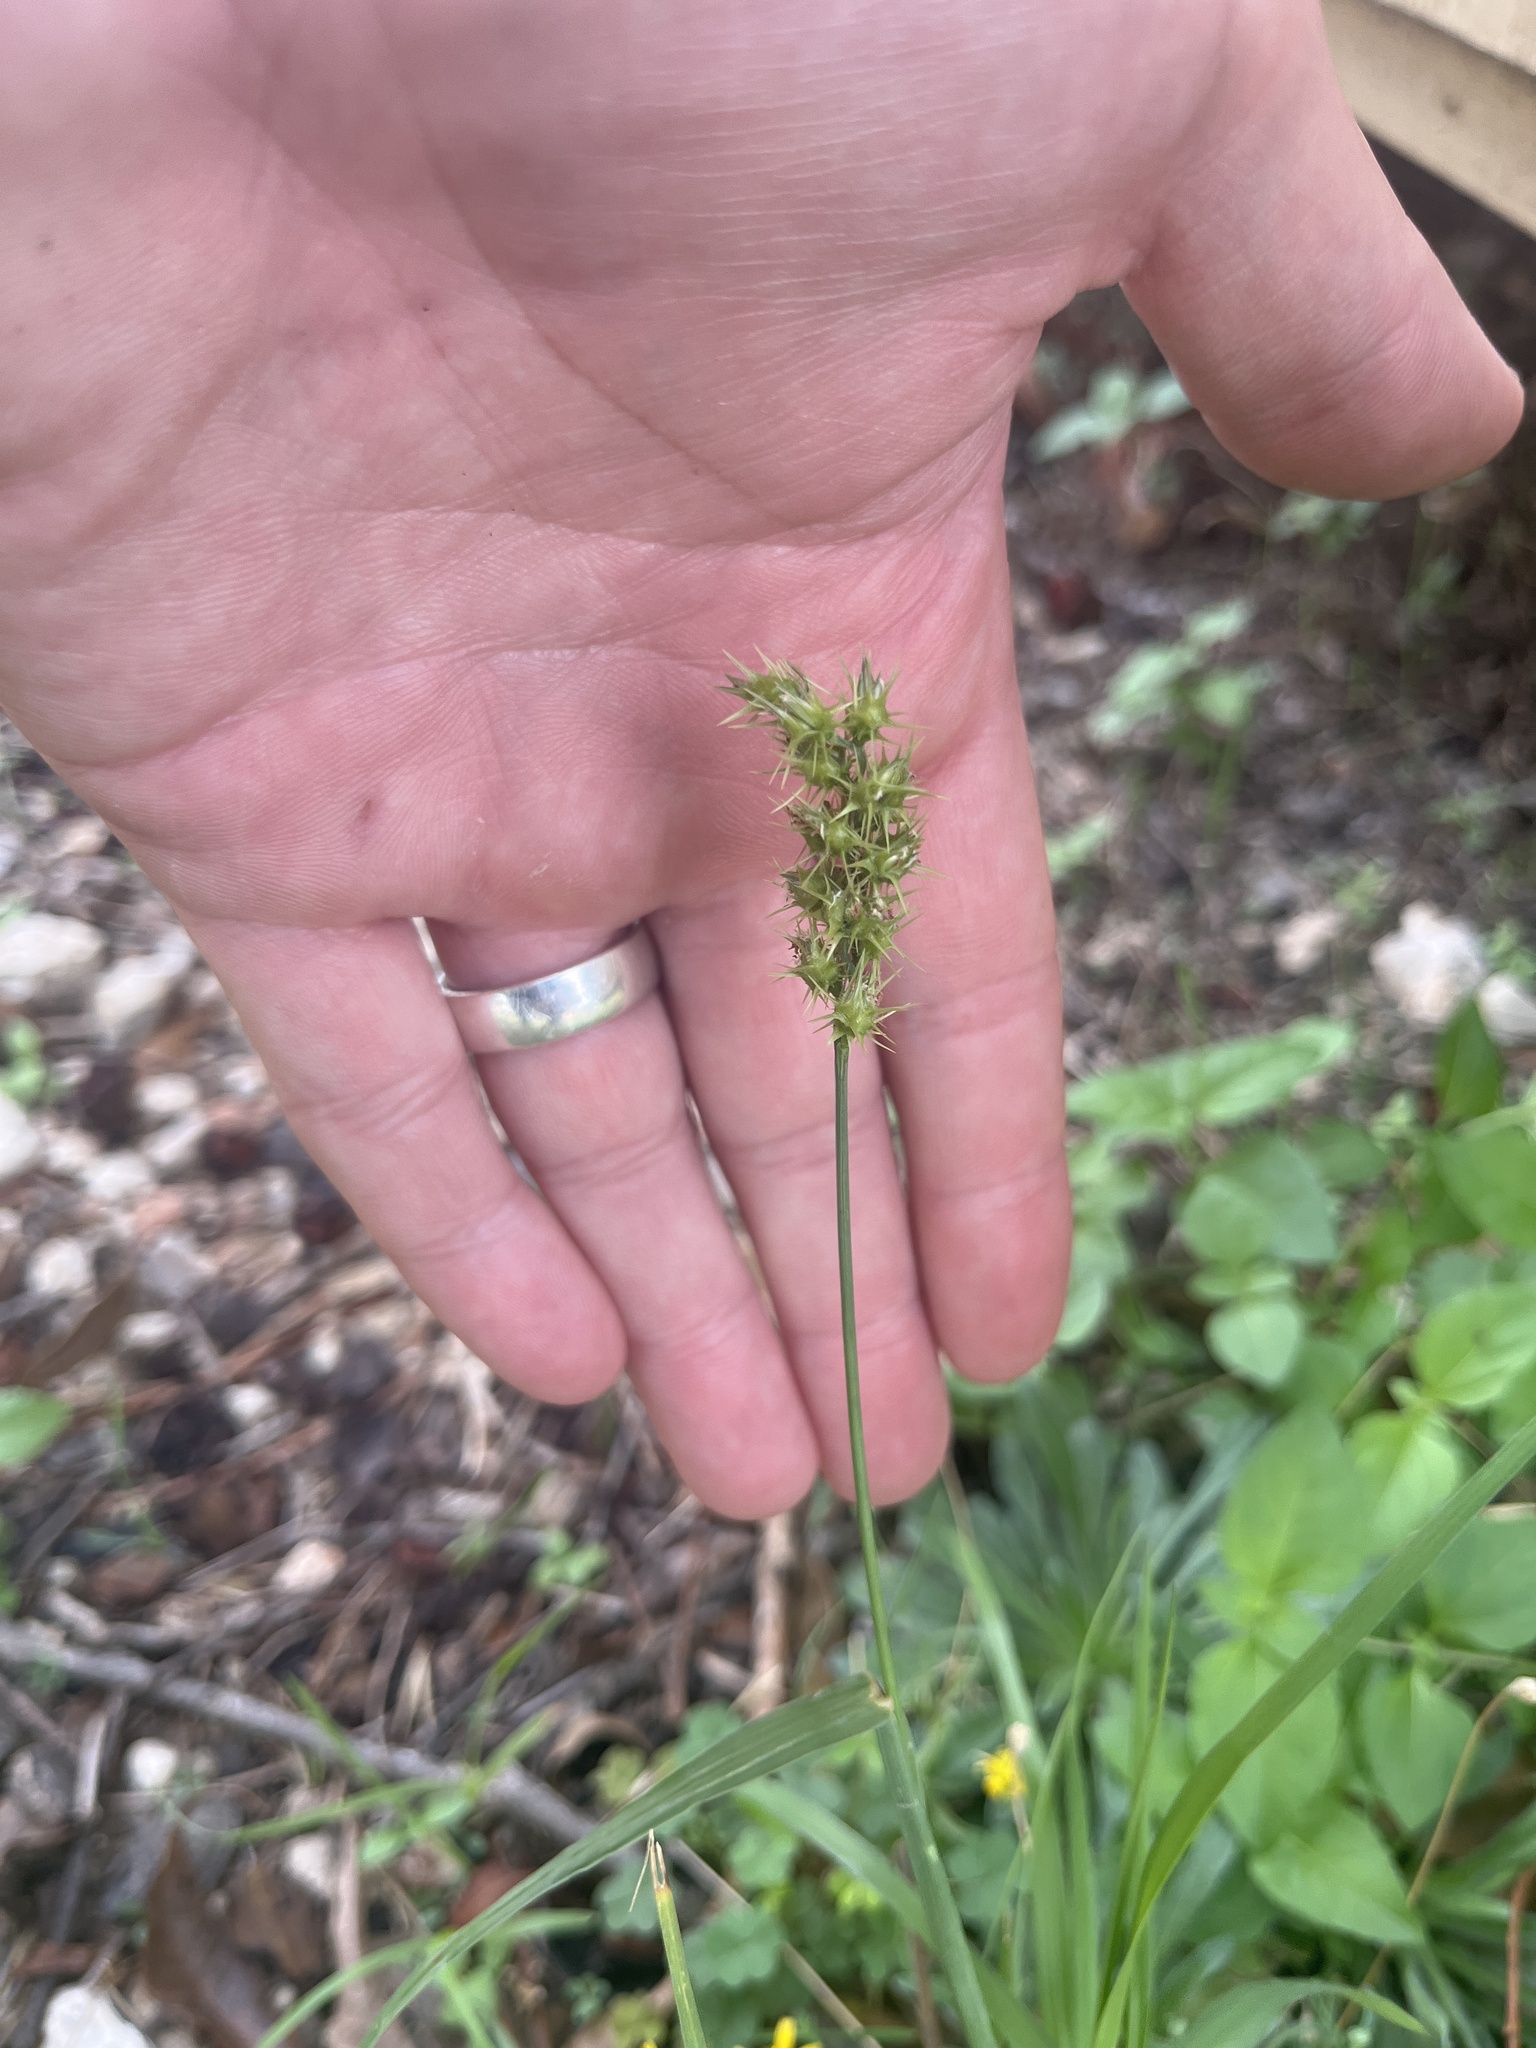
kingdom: Plantae
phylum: Tracheophyta
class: Liliopsida
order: Poales
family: Poaceae
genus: Cenchrus
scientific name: Cenchrus spinifex
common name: Coast sandbur
